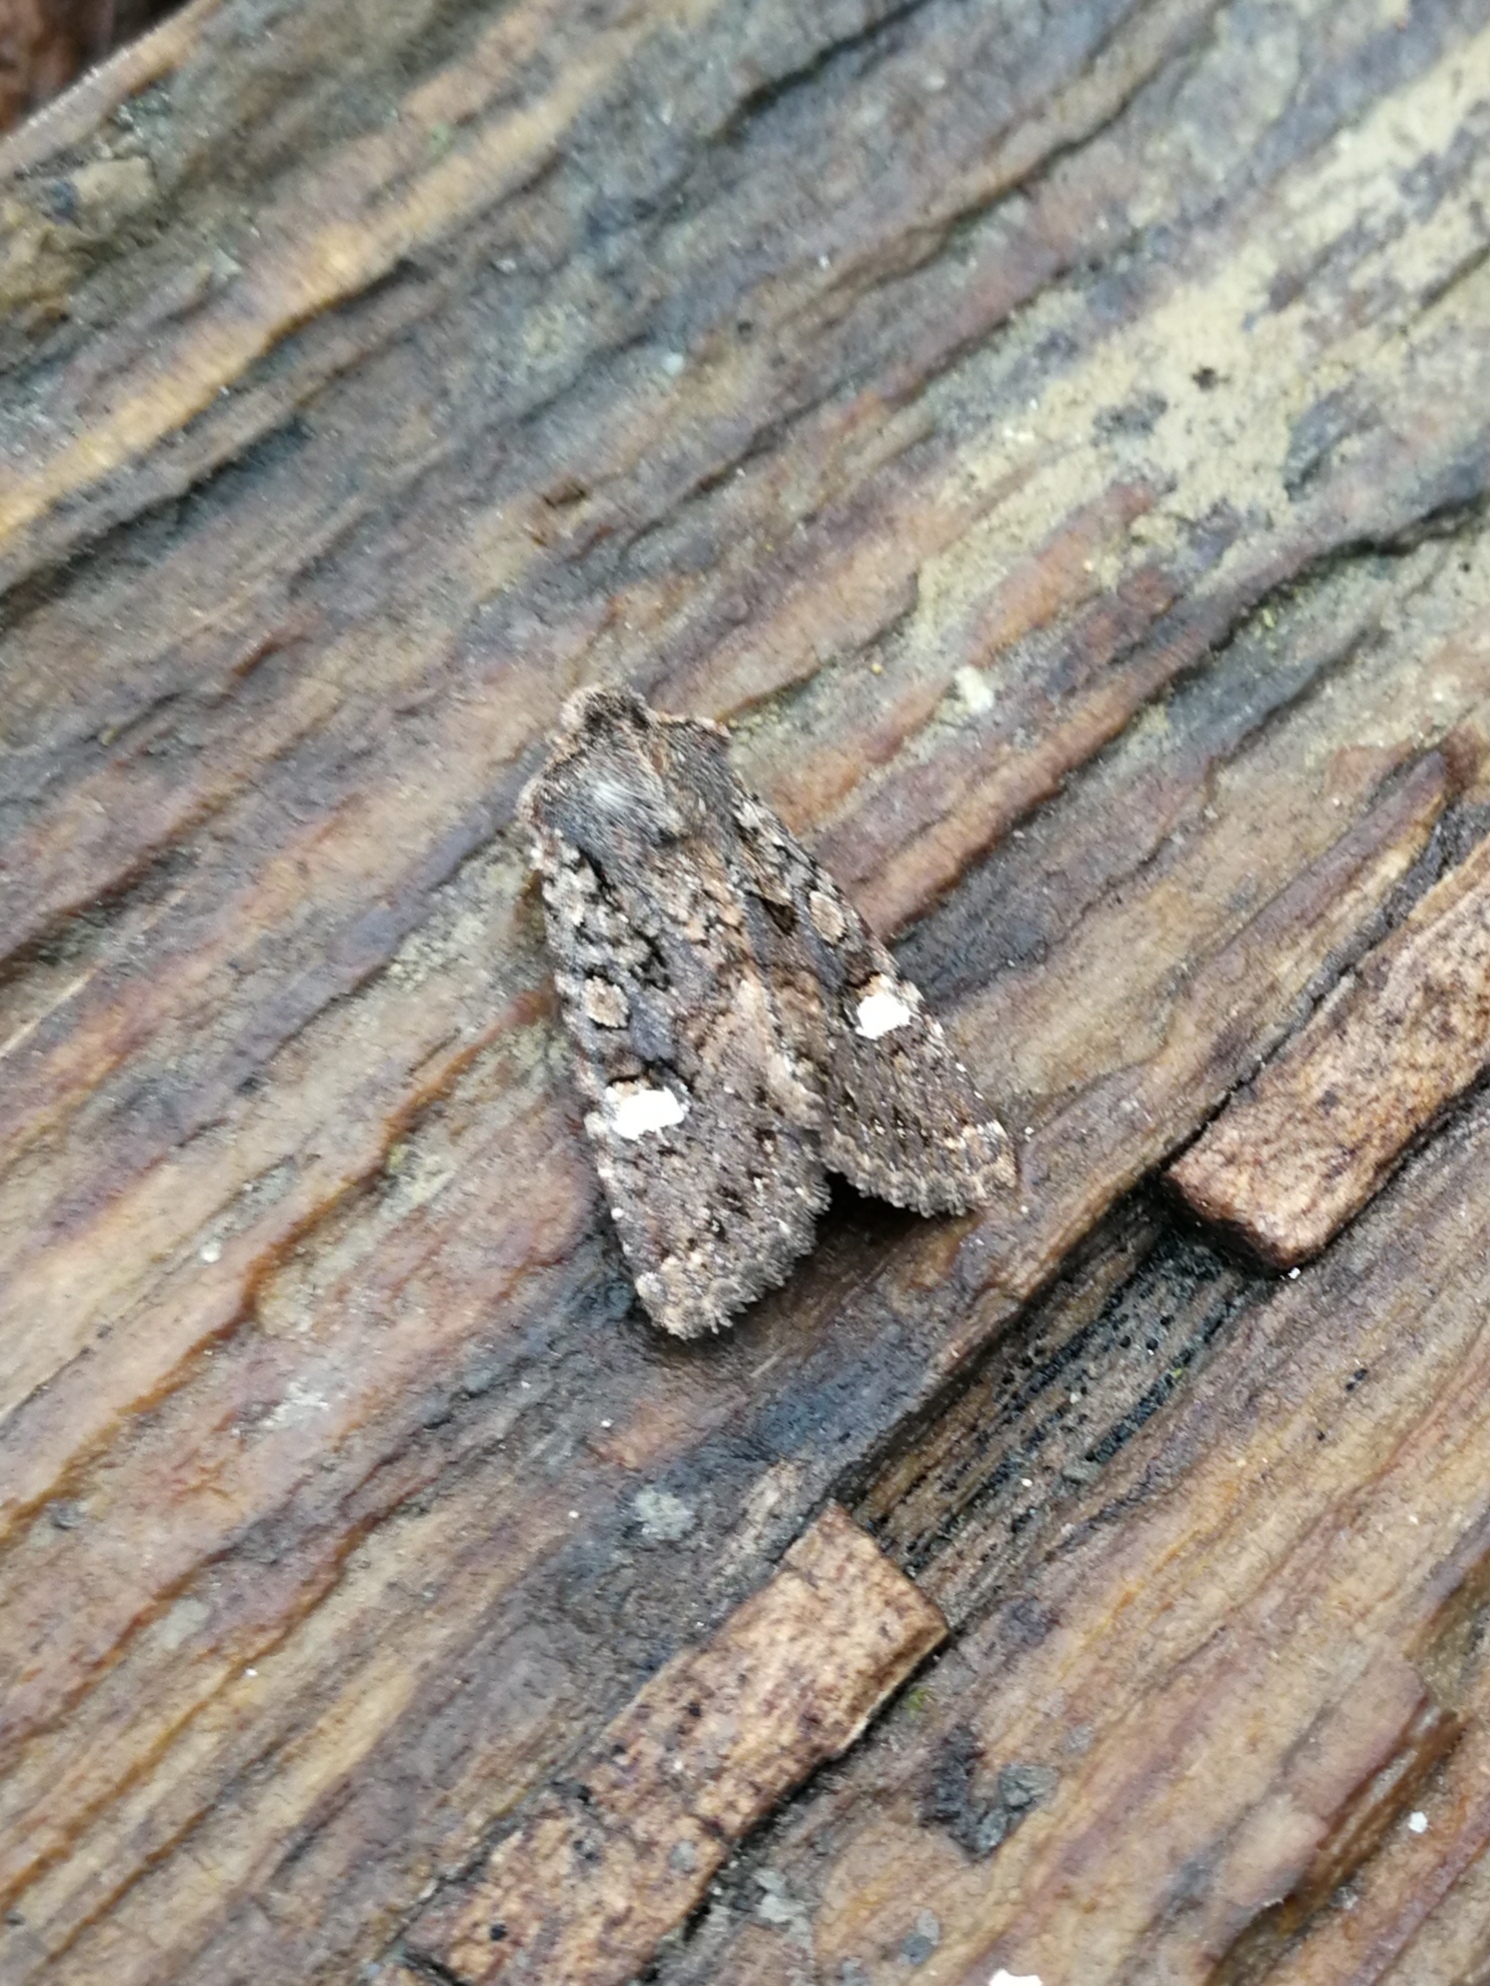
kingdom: Animalia
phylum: Arthropoda
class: Insecta
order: Lepidoptera
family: Noctuidae
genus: Dryobota
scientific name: Dryobota labecula
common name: Oak rustic
